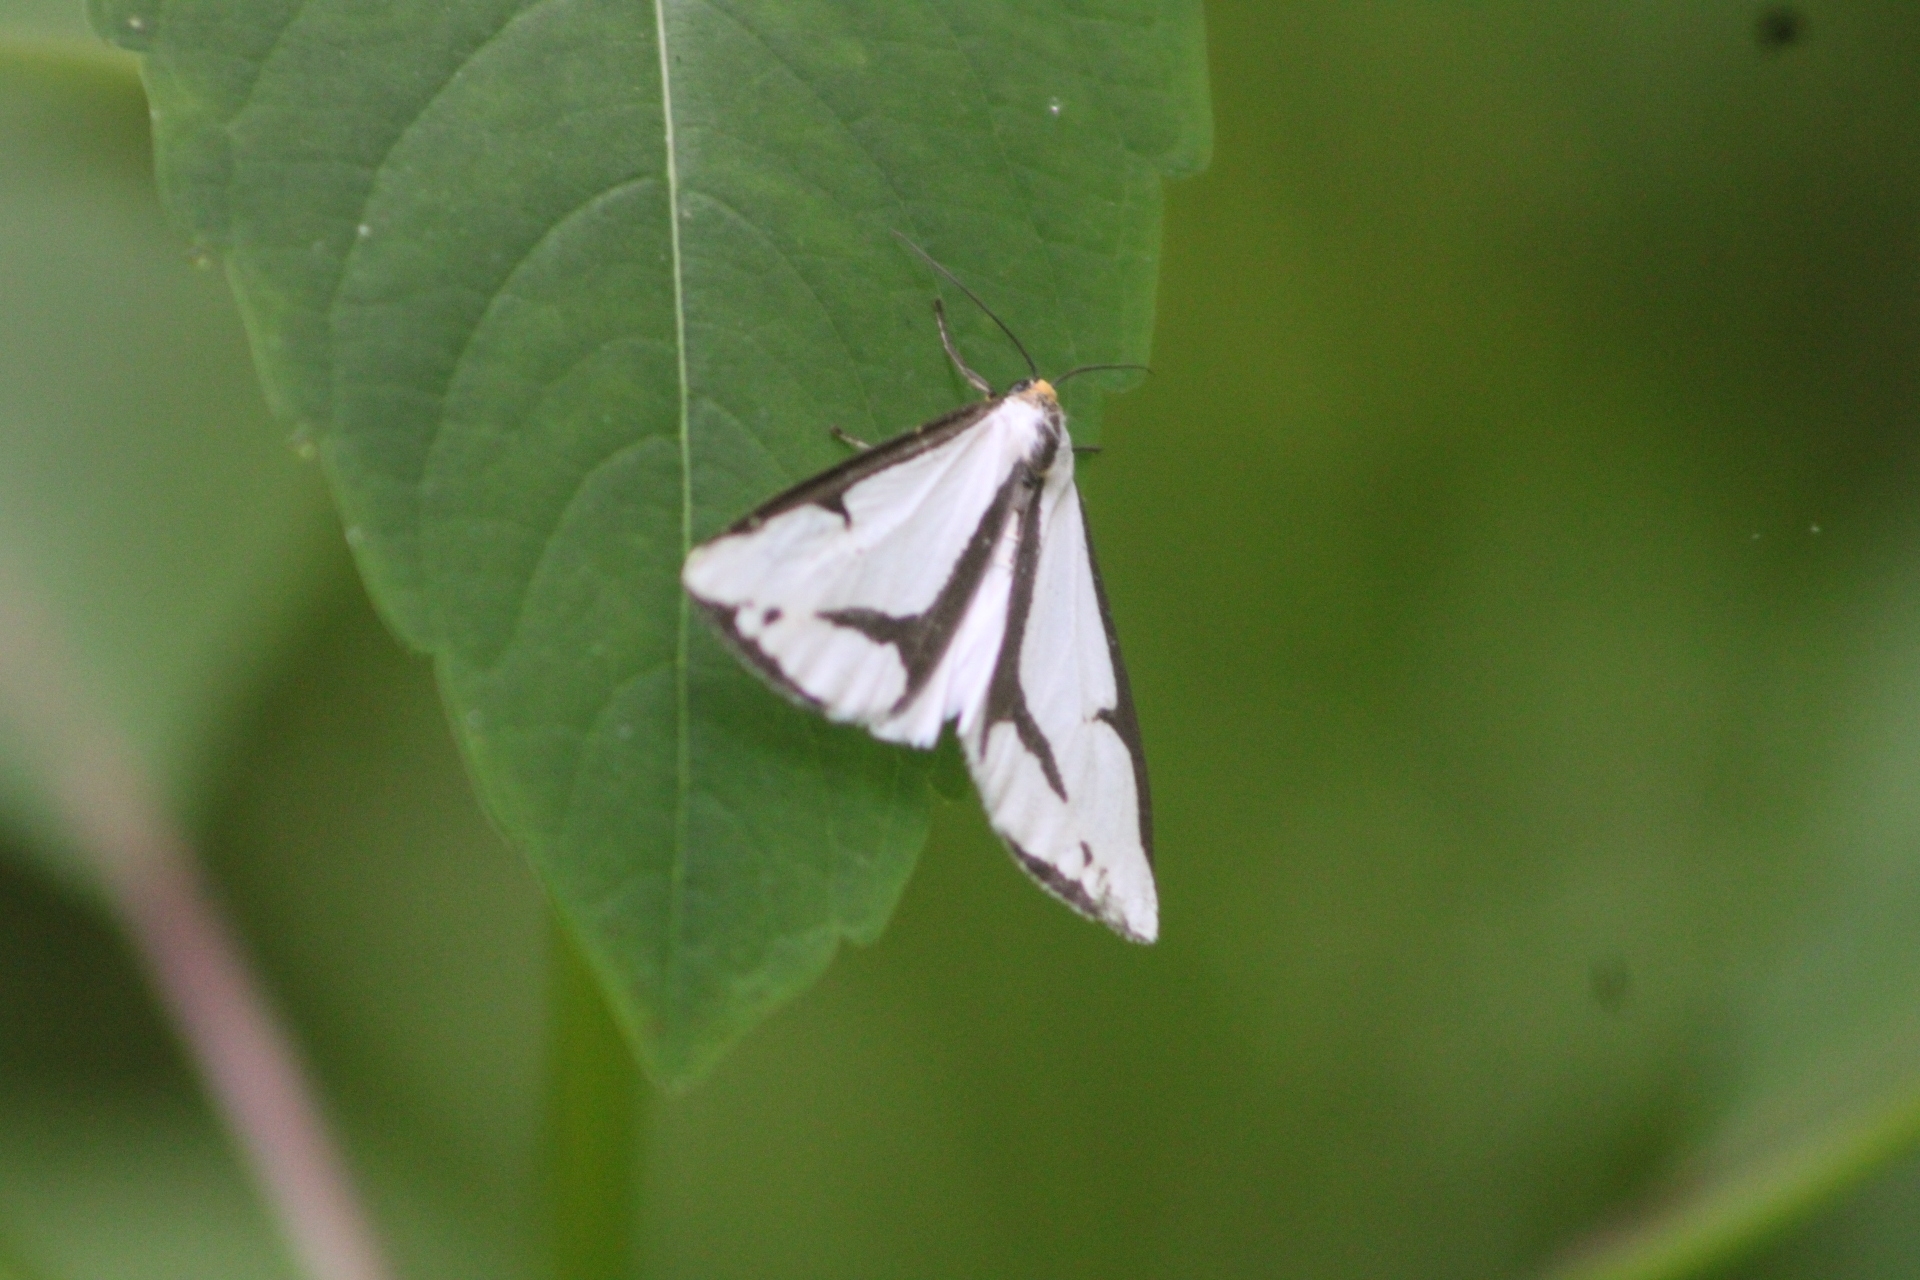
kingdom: Animalia
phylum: Arthropoda
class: Insecta
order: Lepidoptera
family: Erebidae
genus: Haploa
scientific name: Haploa lecontei
